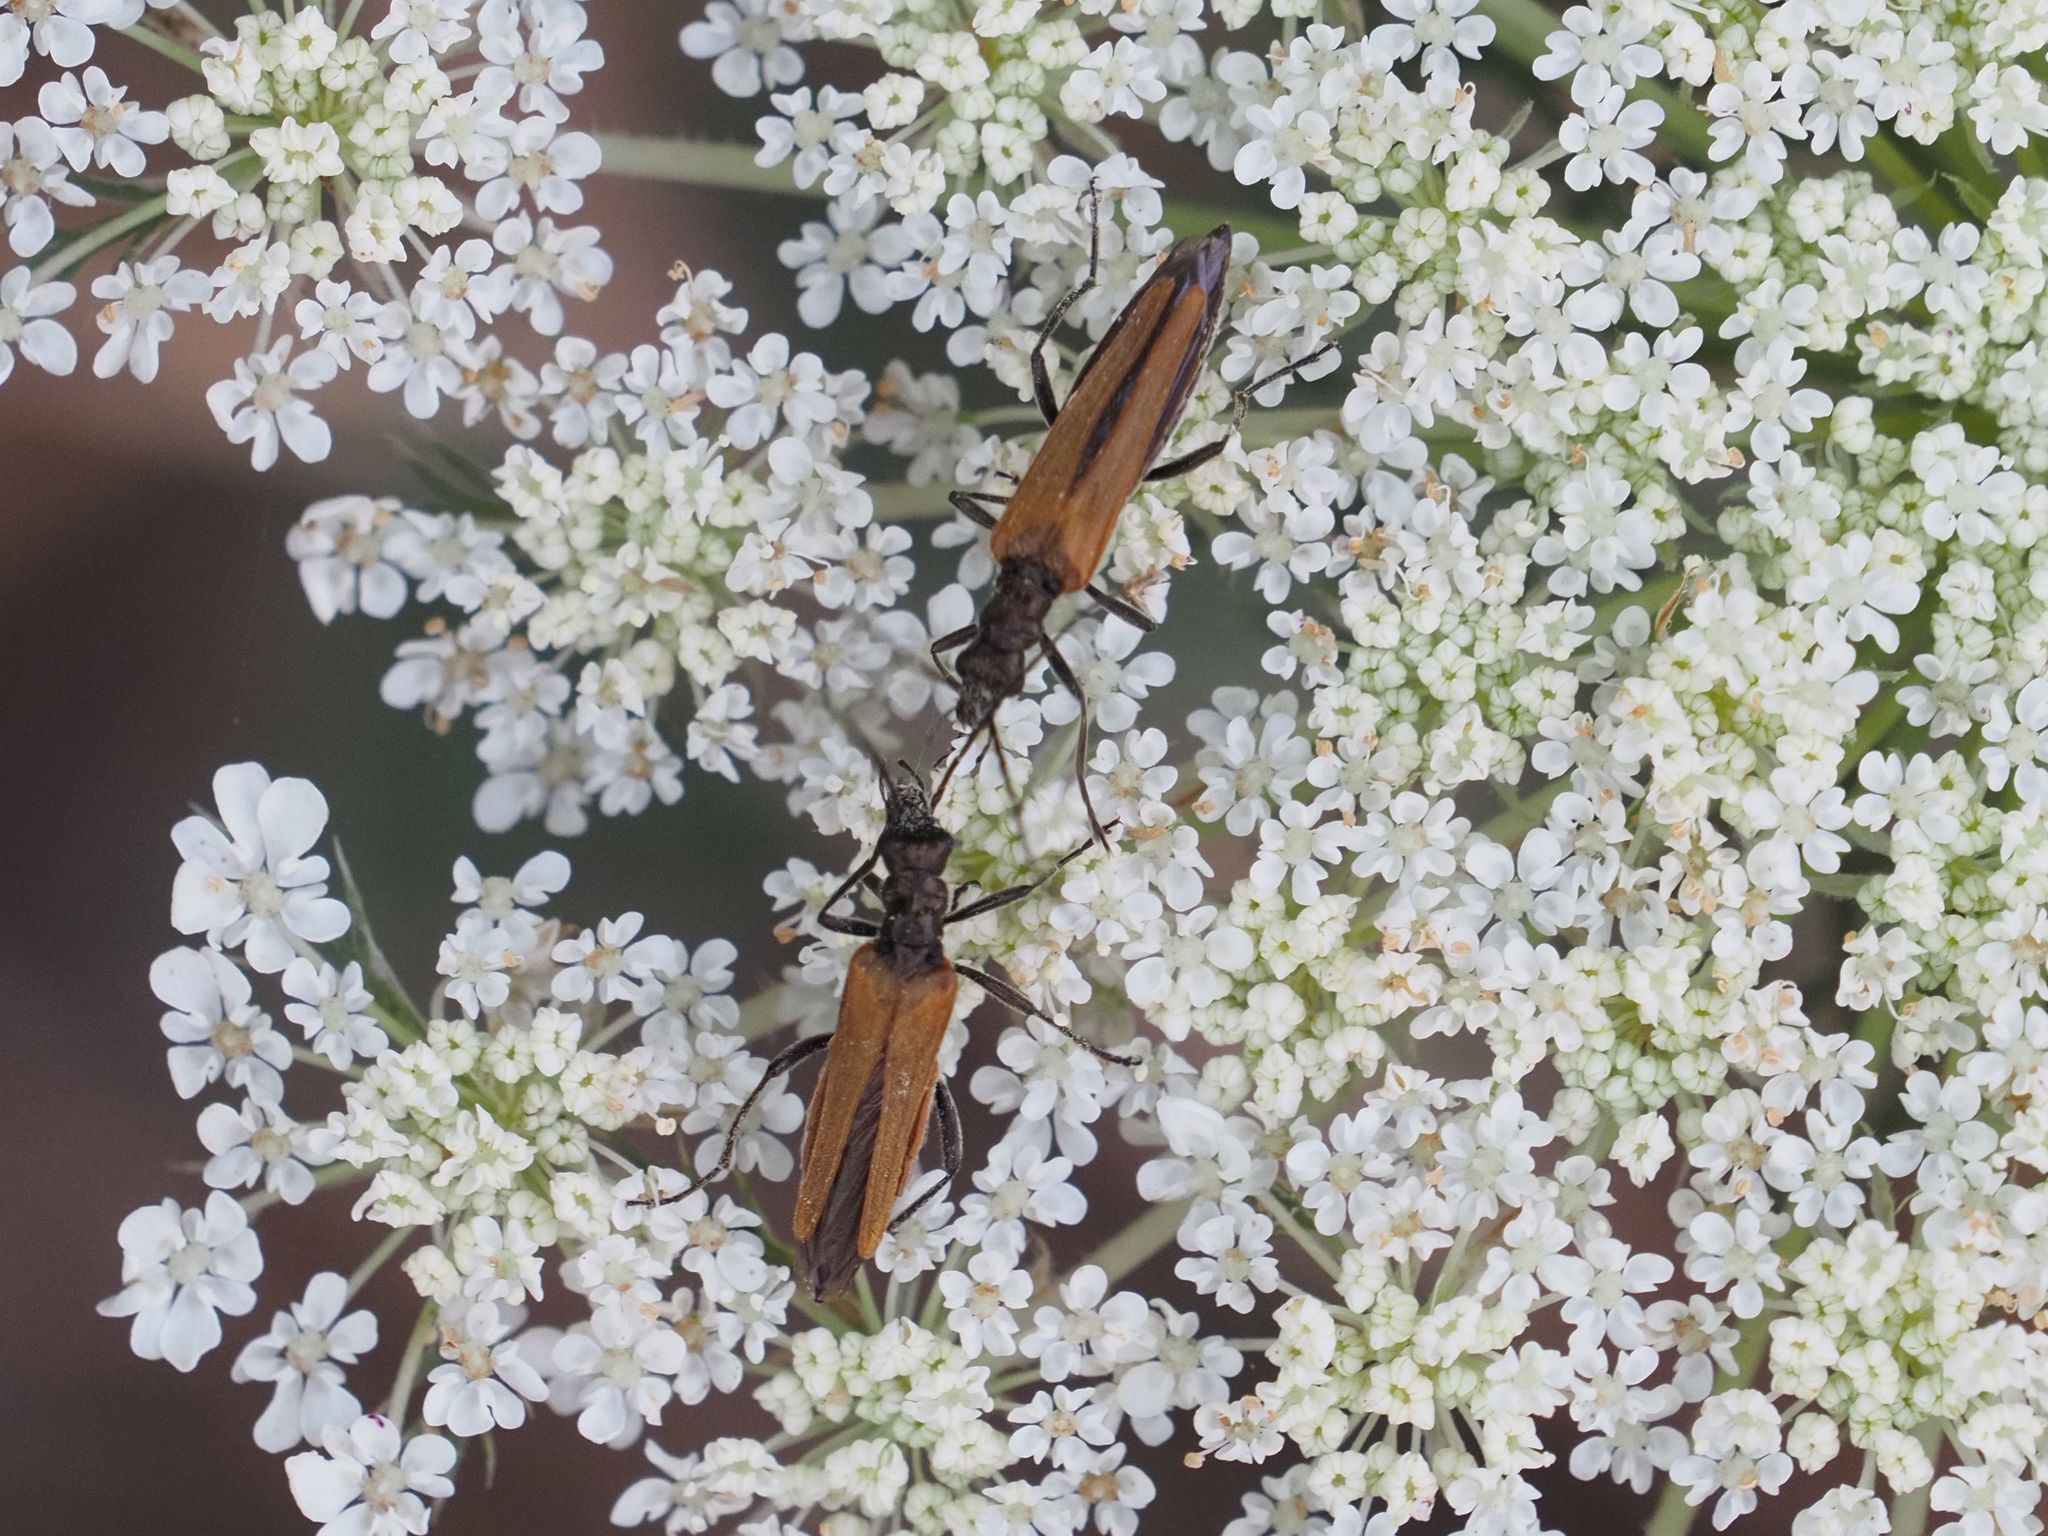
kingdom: Animalia
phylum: Arthropoda
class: Insecta
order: Coleoptera
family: Oedemeridae
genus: Oedemera
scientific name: Oedemera femorata
